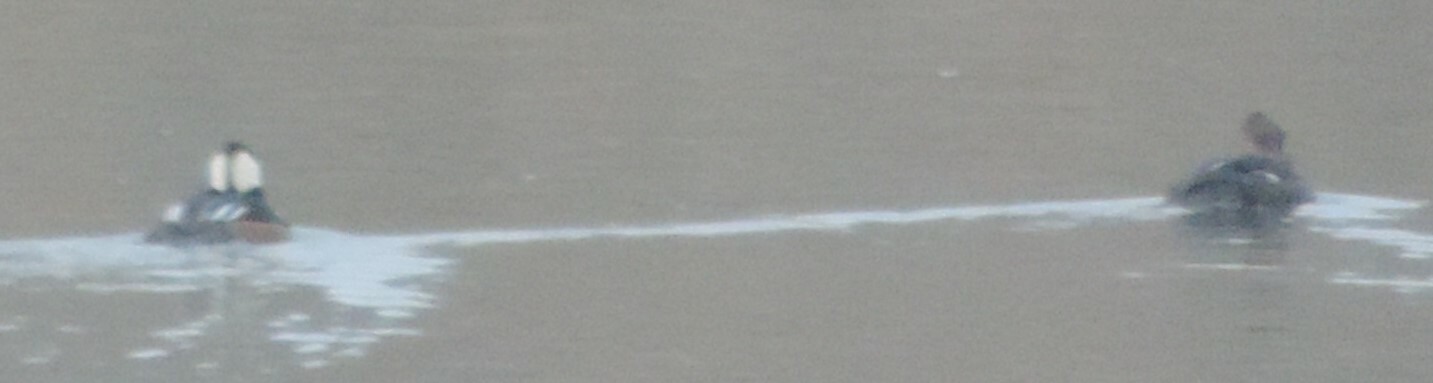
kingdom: Animalia
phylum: Chordata
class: Aves
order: Anseriformes
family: Anatidae
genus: Lophodytes
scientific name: Lophodytes cucullatus
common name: Hooded merganser
